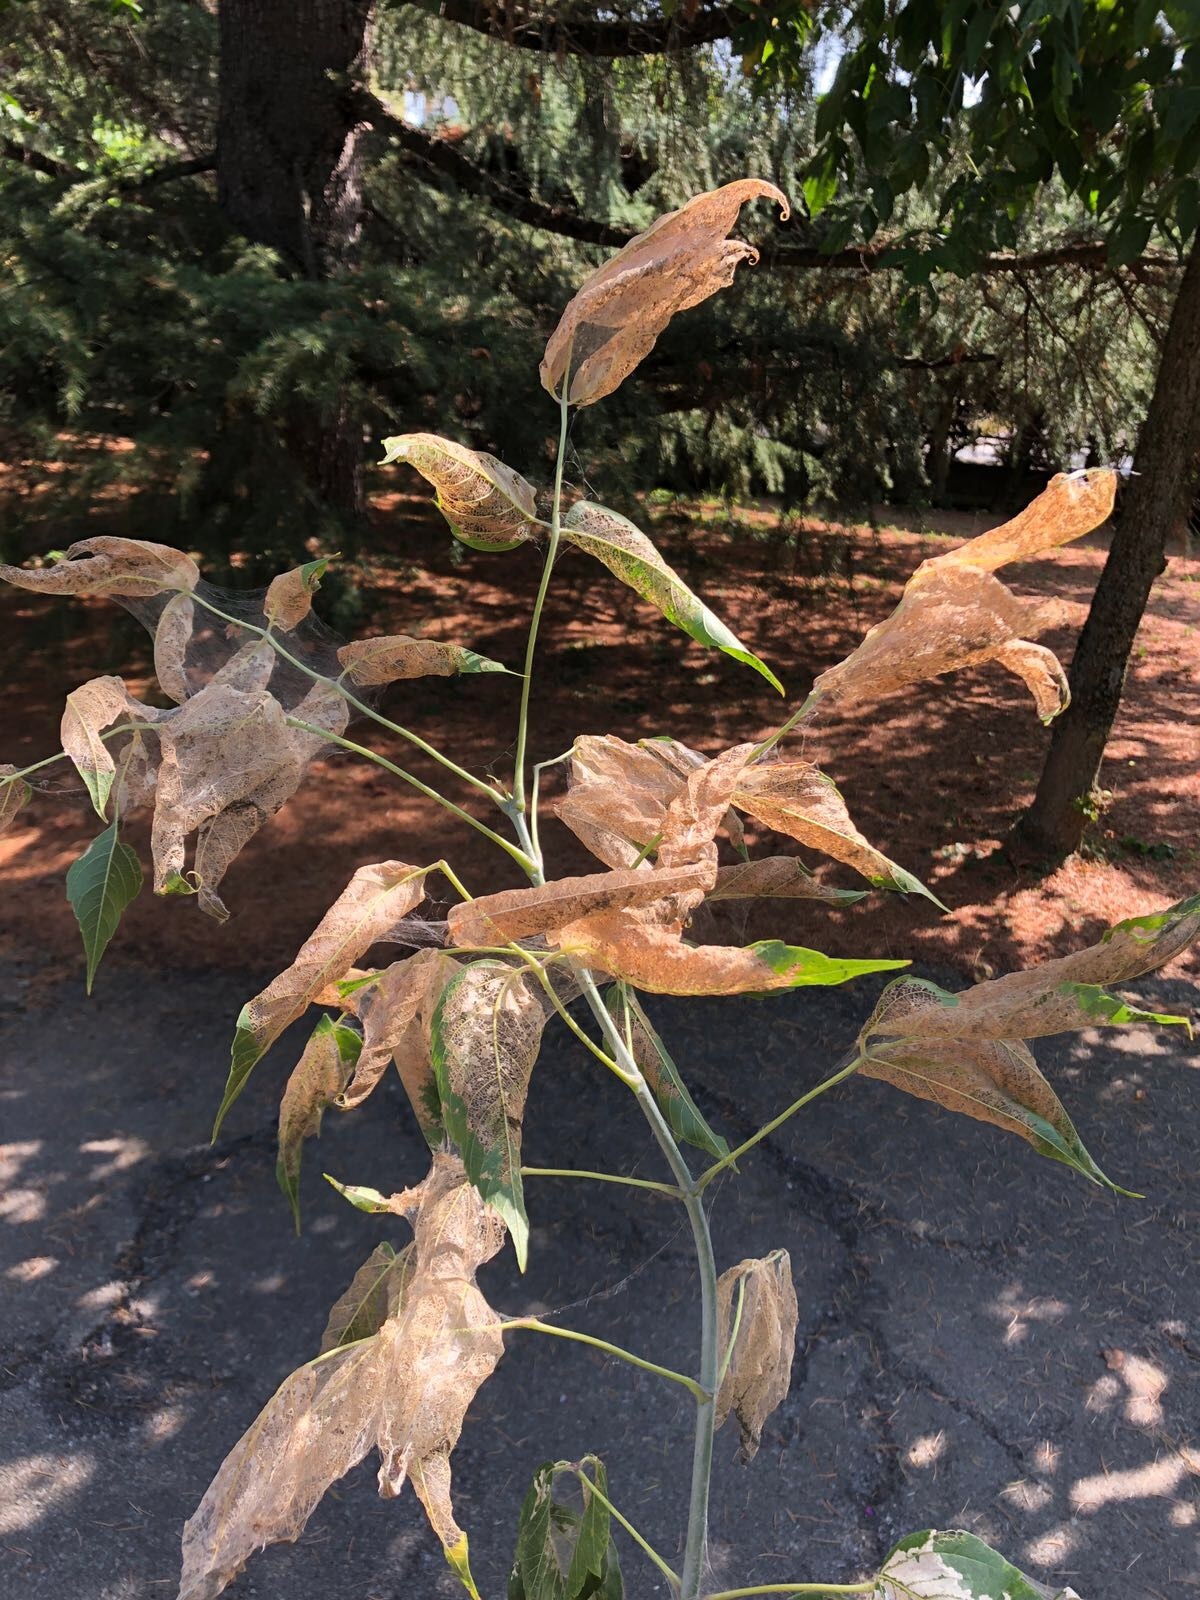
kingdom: Animalia
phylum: Arthropoda
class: Insecta
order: Lepidoptera
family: Erebidae
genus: Hyphantria
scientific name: Hyphantria cunea
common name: American white moth
